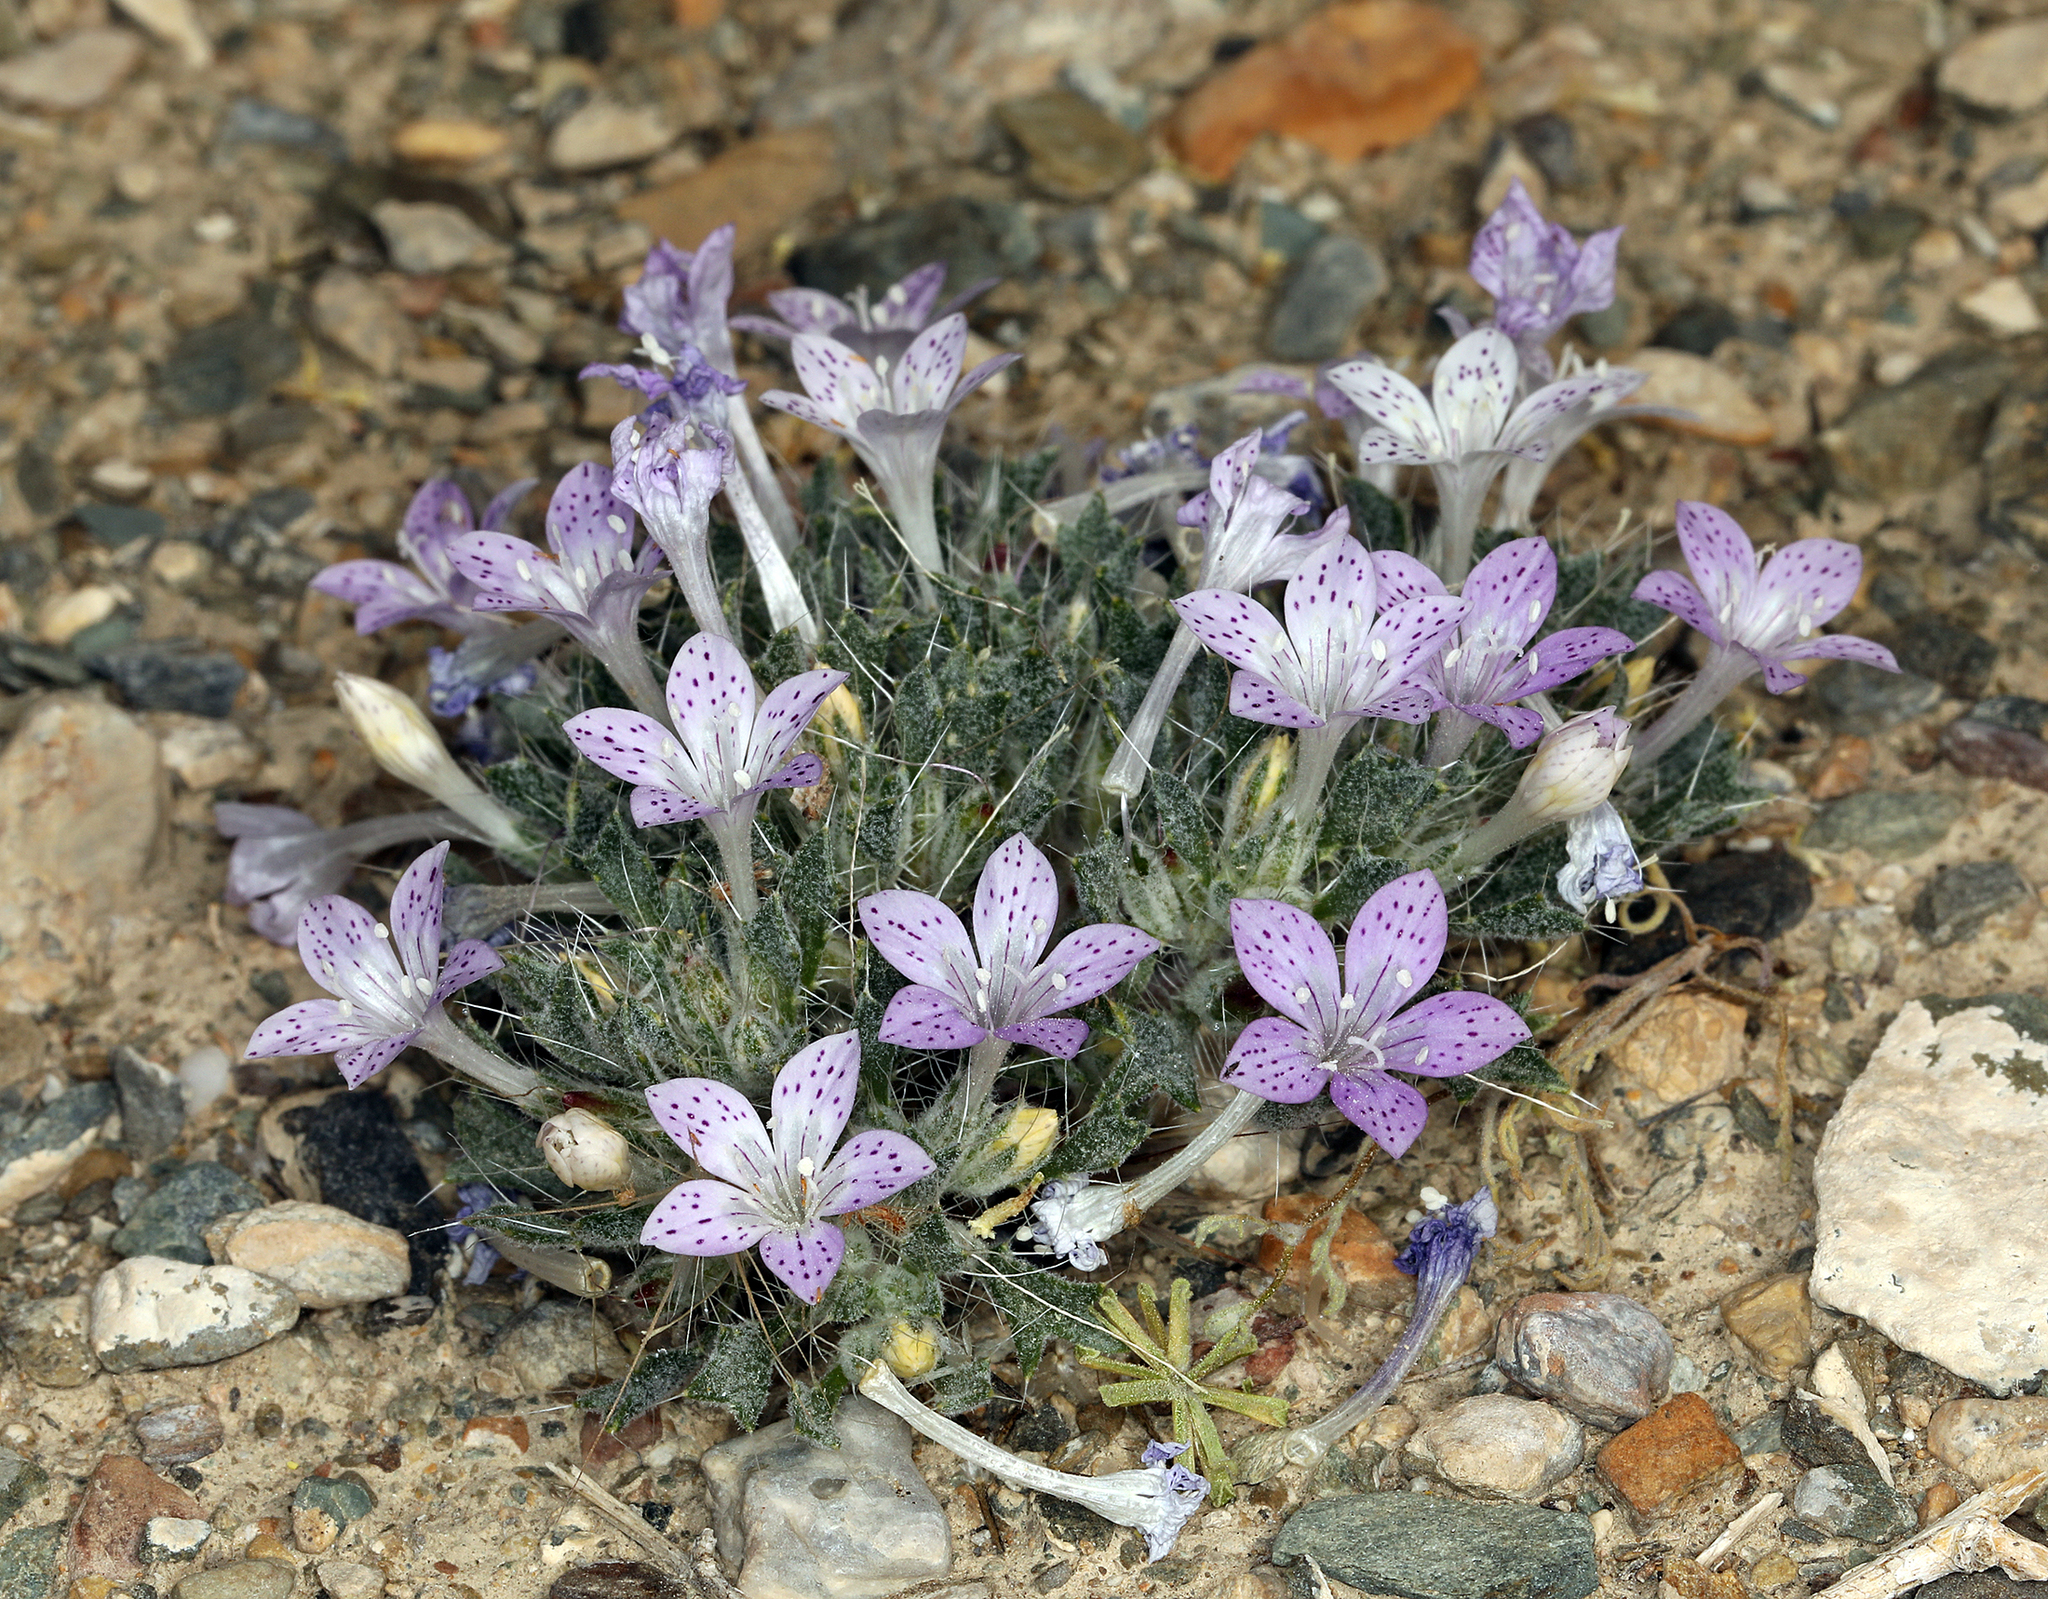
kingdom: Plantae
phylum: Tracheophyta
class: Magnoliopsida
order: Ericales
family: Polemoniaceae
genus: Langloisia
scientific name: Langloisia setosissima
